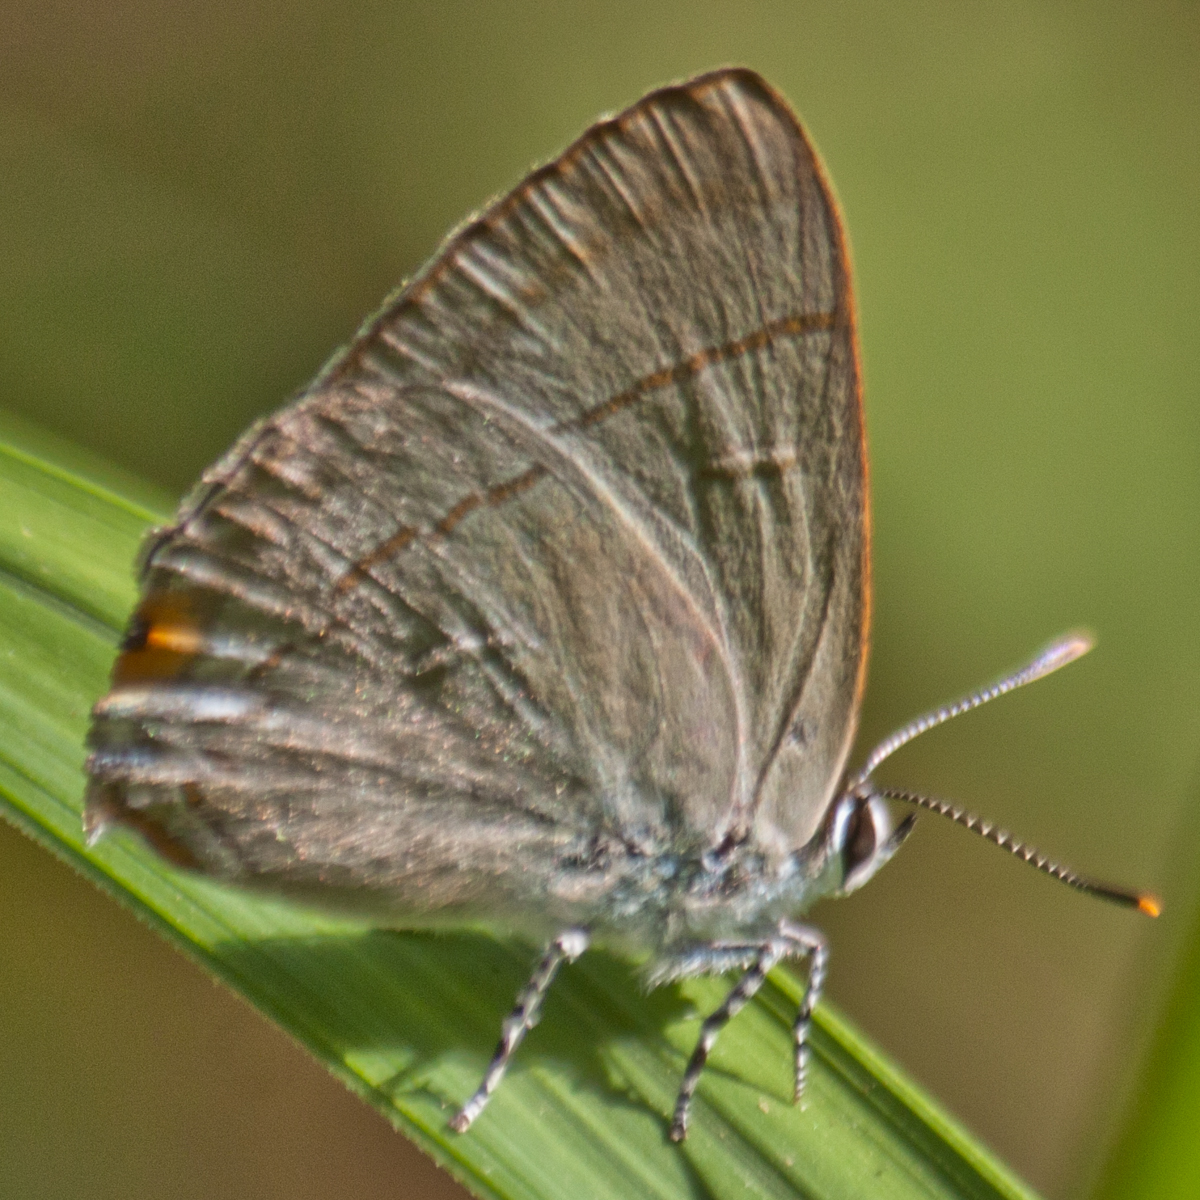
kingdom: Animalia
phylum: Arthropoda
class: Insecta
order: Lepidoptera
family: Lycaenidae
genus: Hypolycaena
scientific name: Hypolycaena erylus
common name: Common tit
